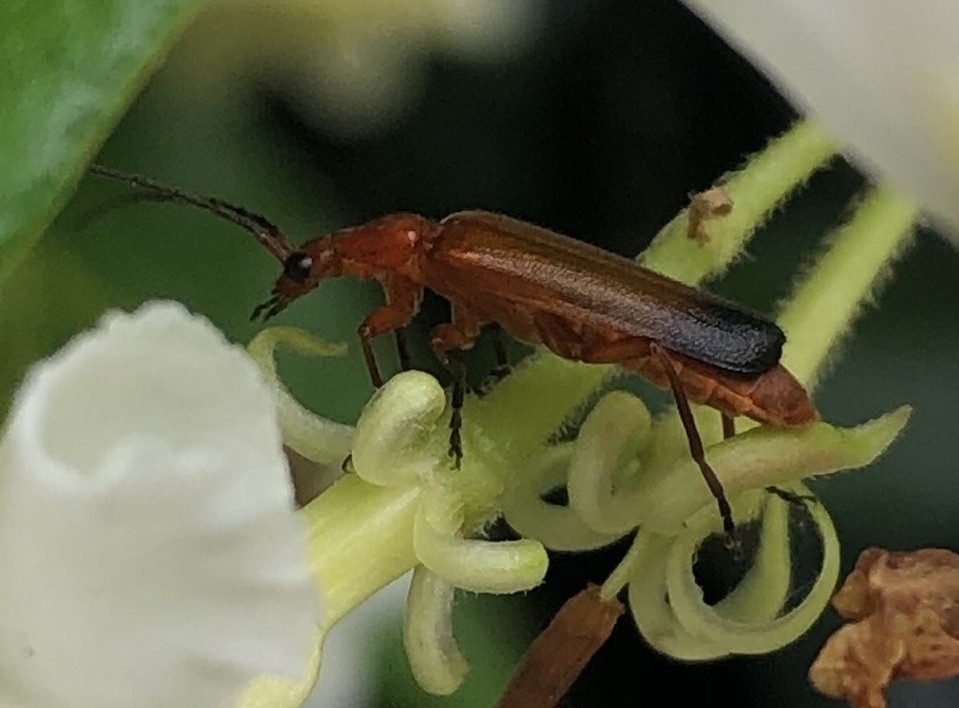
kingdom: Animalia
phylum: Arthropoda
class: Insecta
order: Coleoptera
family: Cantharidae
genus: Rhagonycha
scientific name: Rhagonycha fulva
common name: Common red soldier beetle
